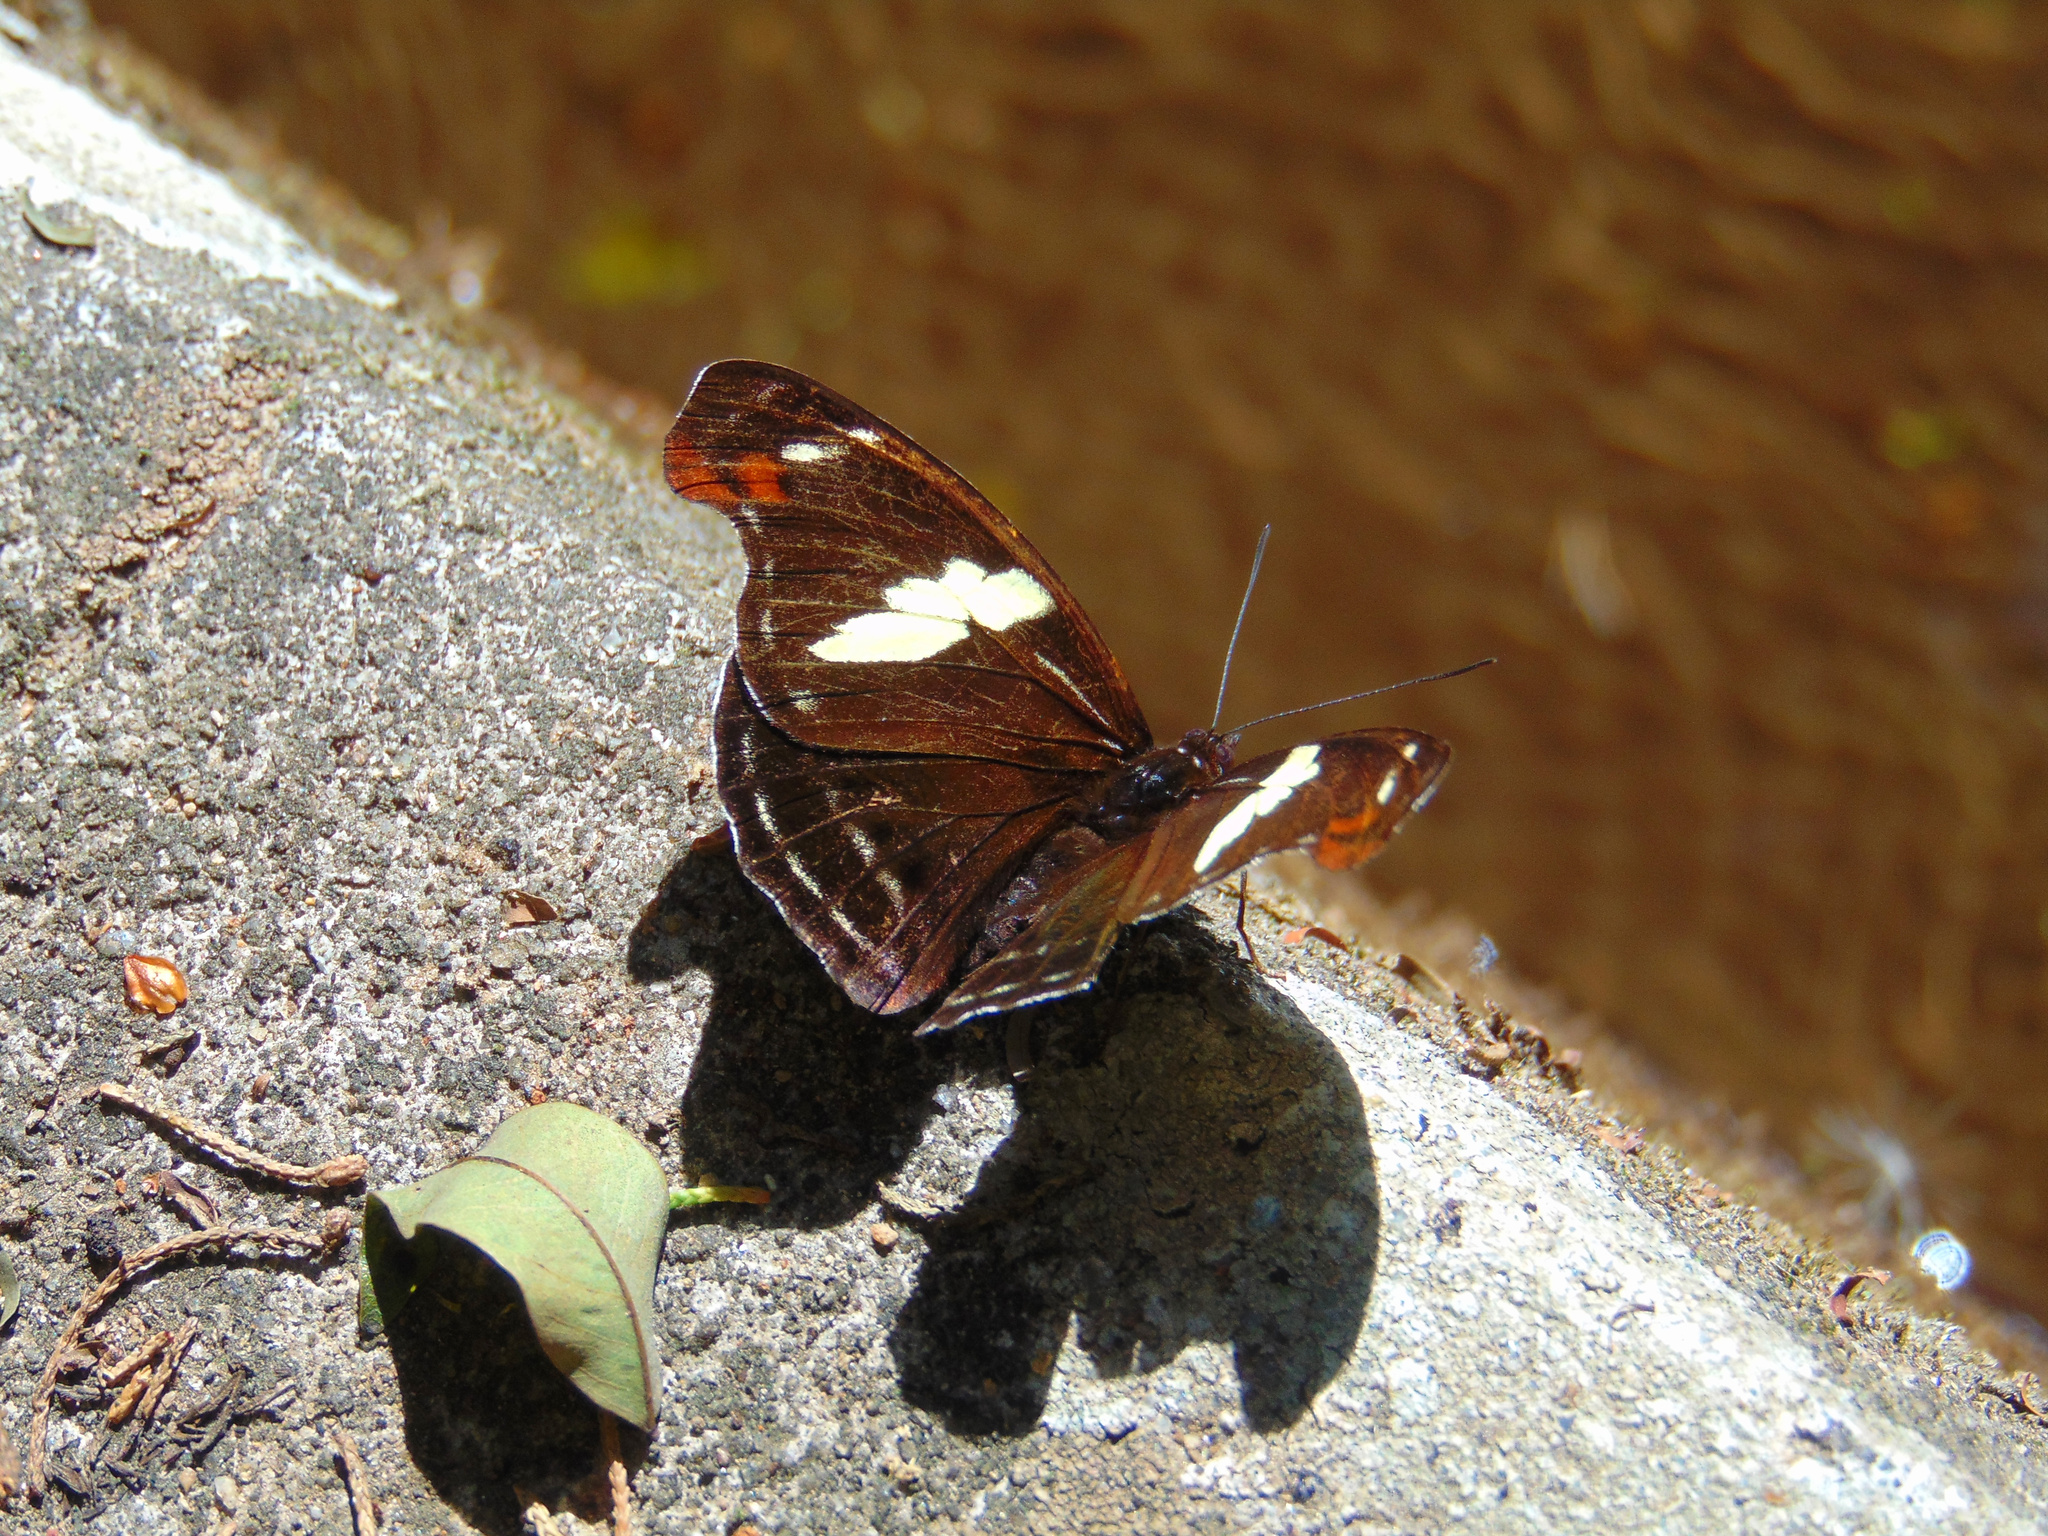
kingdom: Animalia
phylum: Arthropoda
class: Insecta
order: Lepidoptera
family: Nymphalidae
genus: Catonephele
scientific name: Catonephele numilia
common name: Blue-frosted banner
